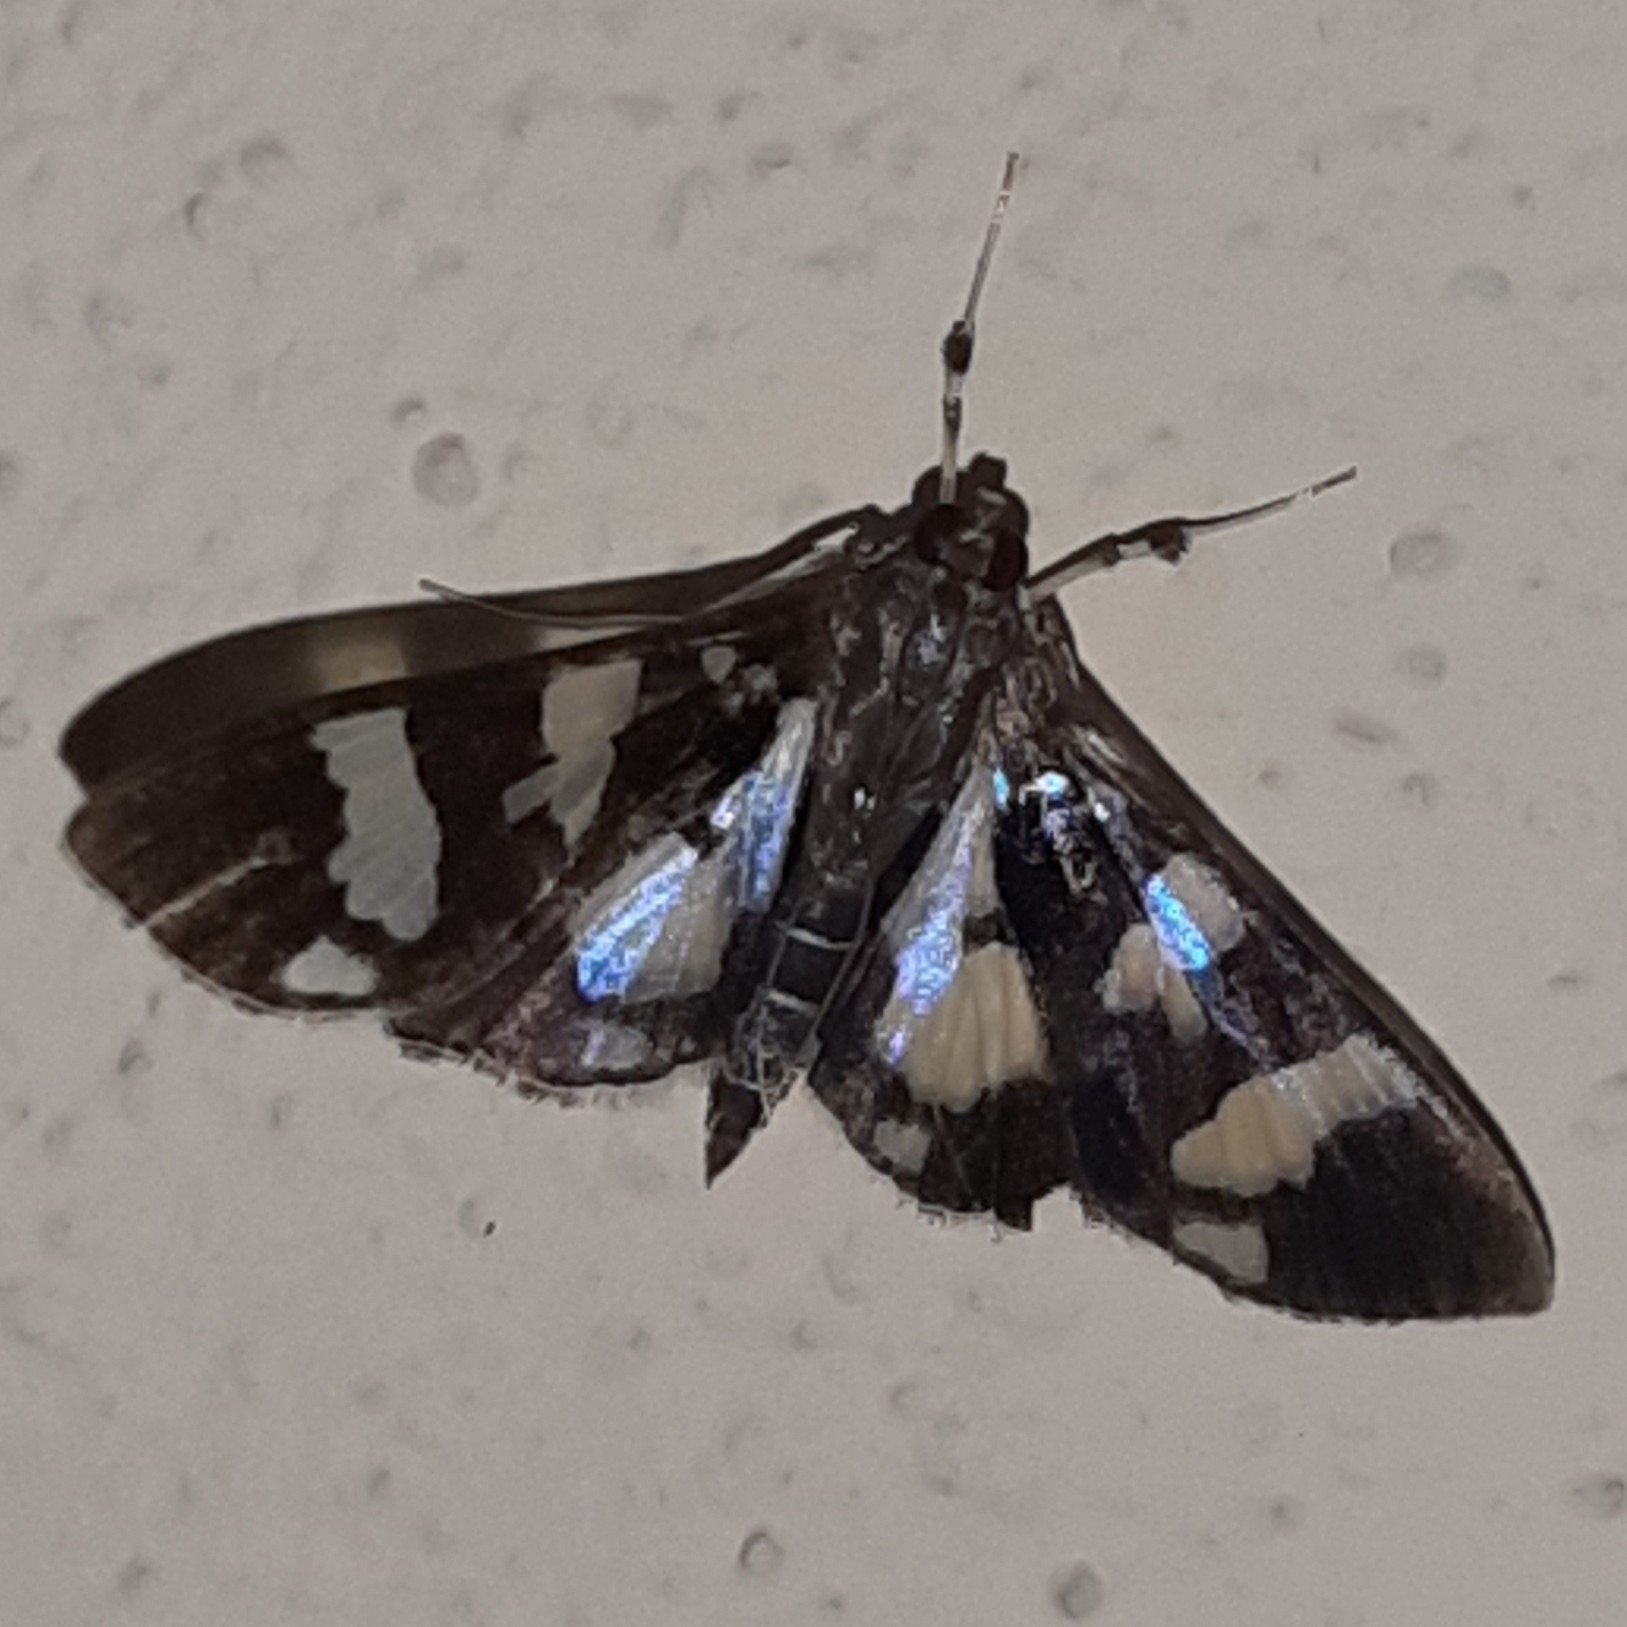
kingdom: Animalia
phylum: Arthropoda
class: Insecta
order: Lepidoptera
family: Crambidae
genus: Desmia
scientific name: Desmia bajulalis
